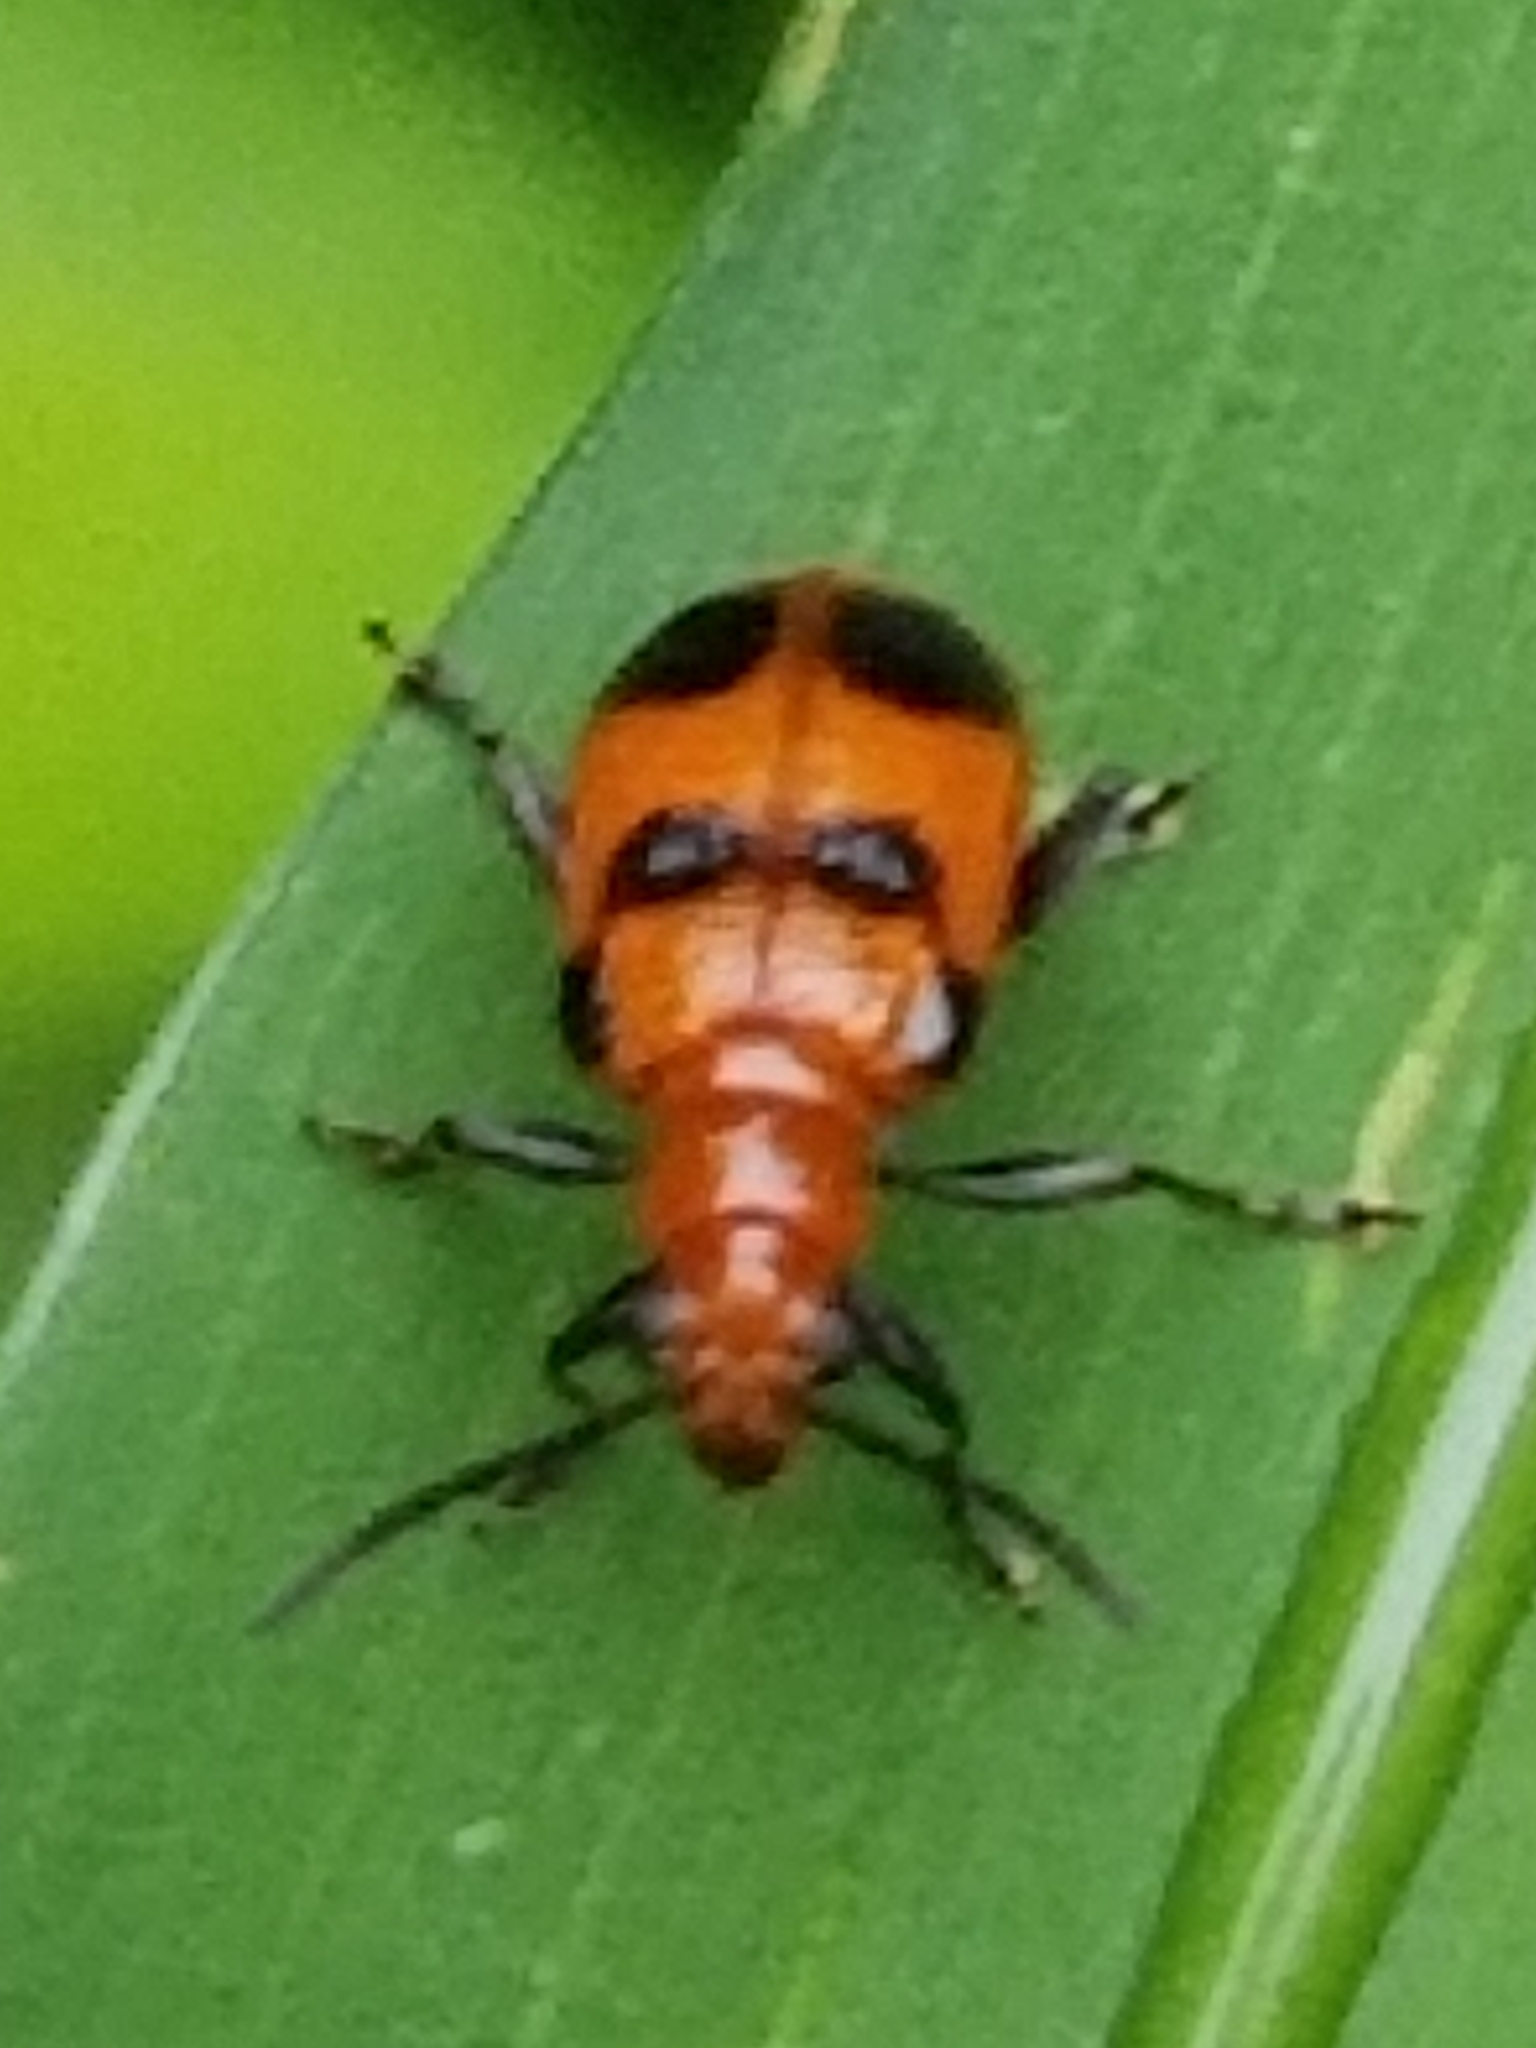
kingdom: Animalia
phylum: Arthropoda
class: Insecta
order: Coleoptera
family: Chrysomelidae
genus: Neolema
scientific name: Neolema sexpunctata
